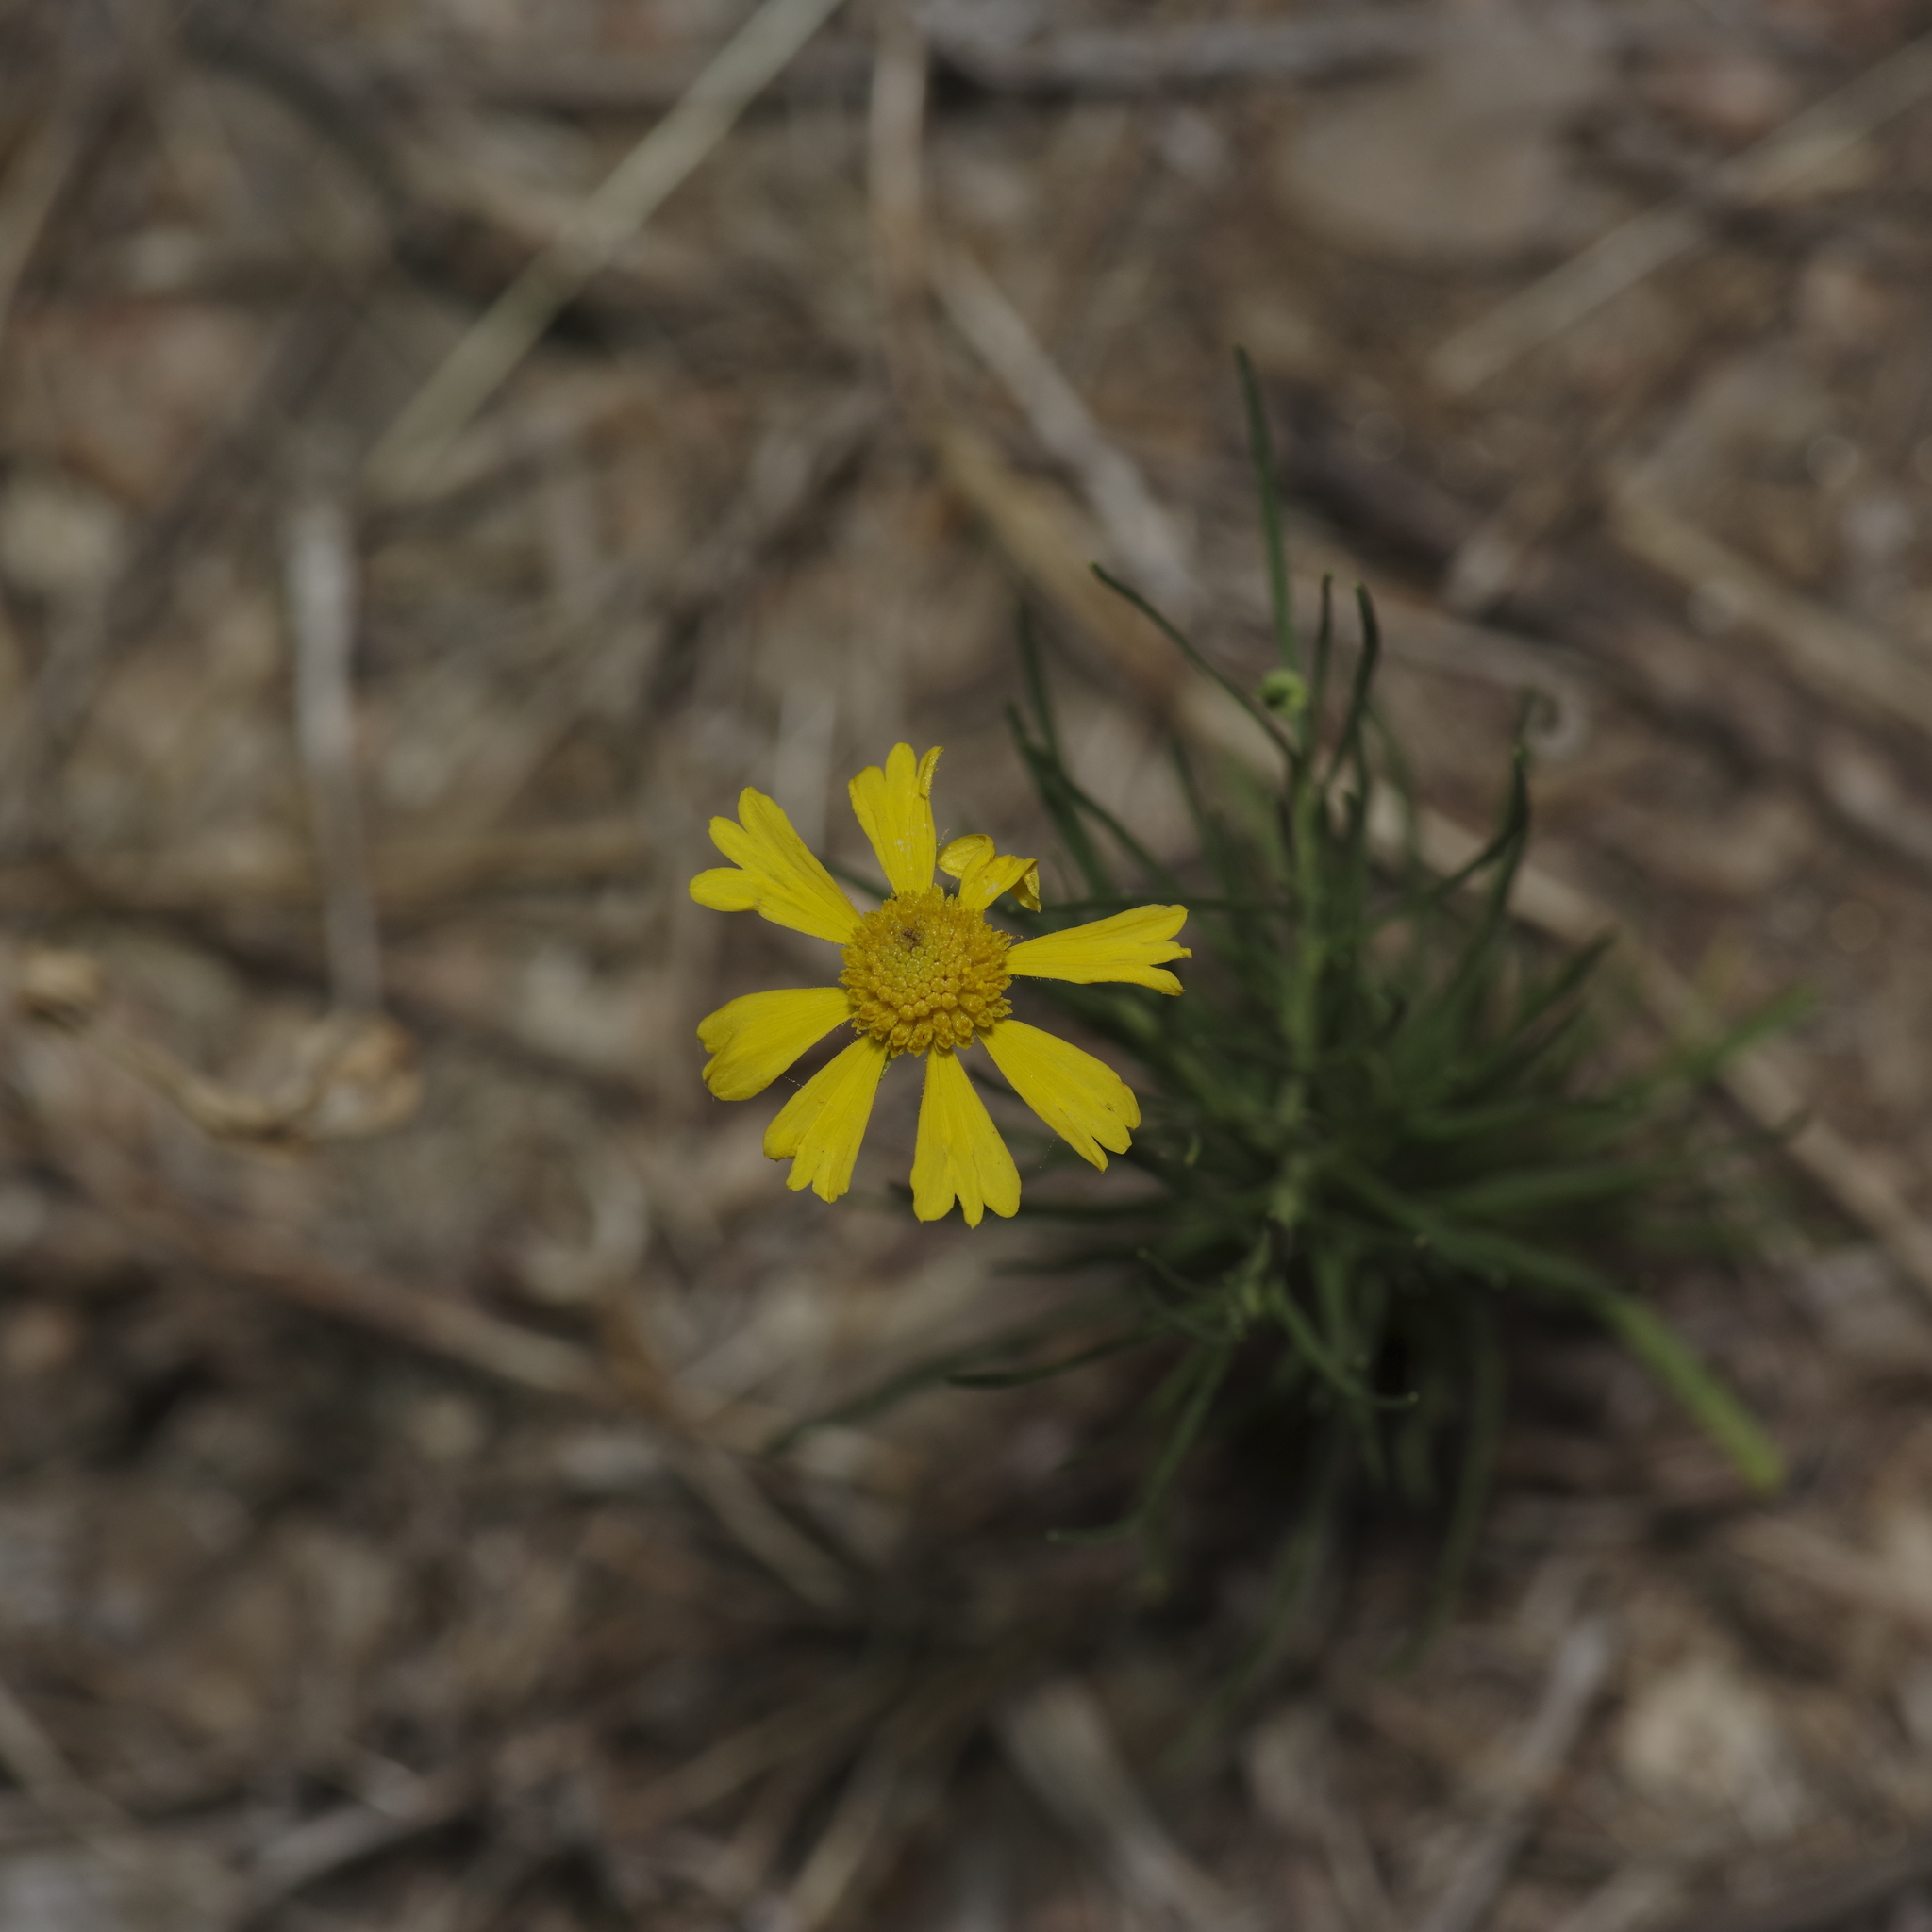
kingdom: Plantae
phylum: Tracheophyta
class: Magnoliopsida
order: Asterales
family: Asteraceae
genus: Helenium
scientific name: Helenium amarum
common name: Bitter sneezeweed
